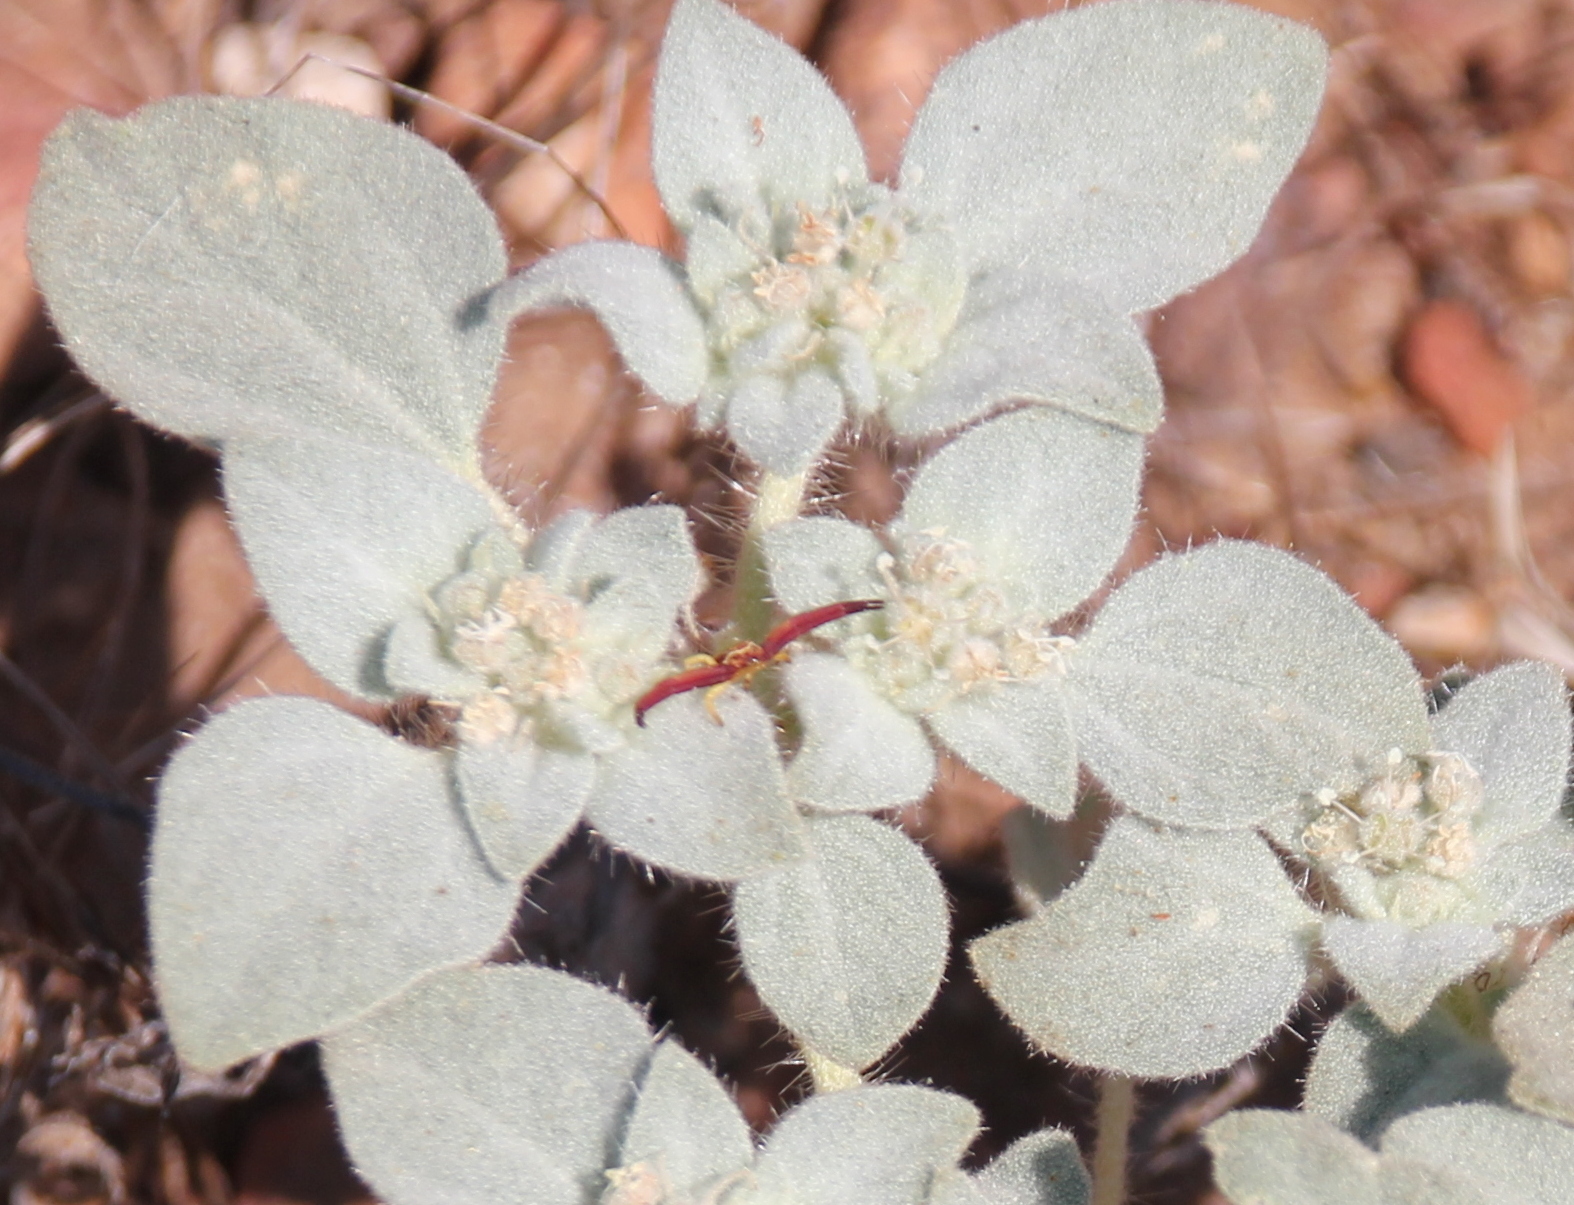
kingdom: Plantae
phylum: Tracheophyta
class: Magnoliopsida
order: Malpighiales
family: Euphorbiaceae
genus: Croton
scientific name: Croton setiger
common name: Dove weed
